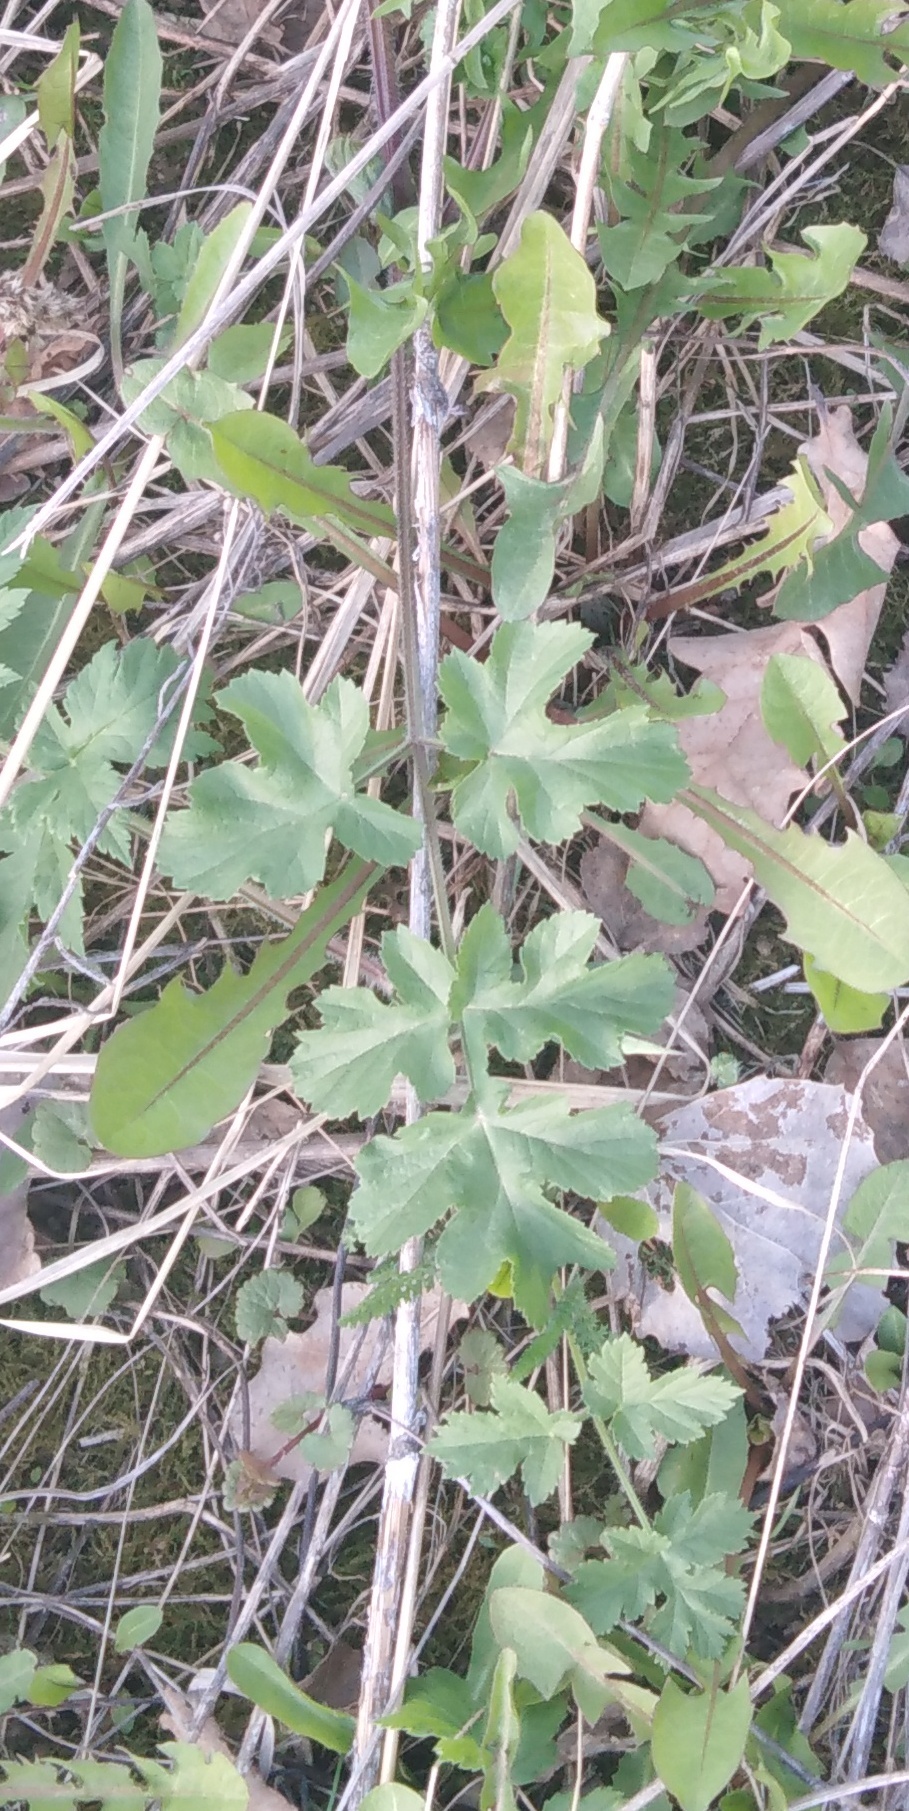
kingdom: Plantae
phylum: Tracheophyta
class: Magnoliopsida
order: Apiales
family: Apiaceae
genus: Heracleum
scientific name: Heracleum sphondylium
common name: Hogweed
